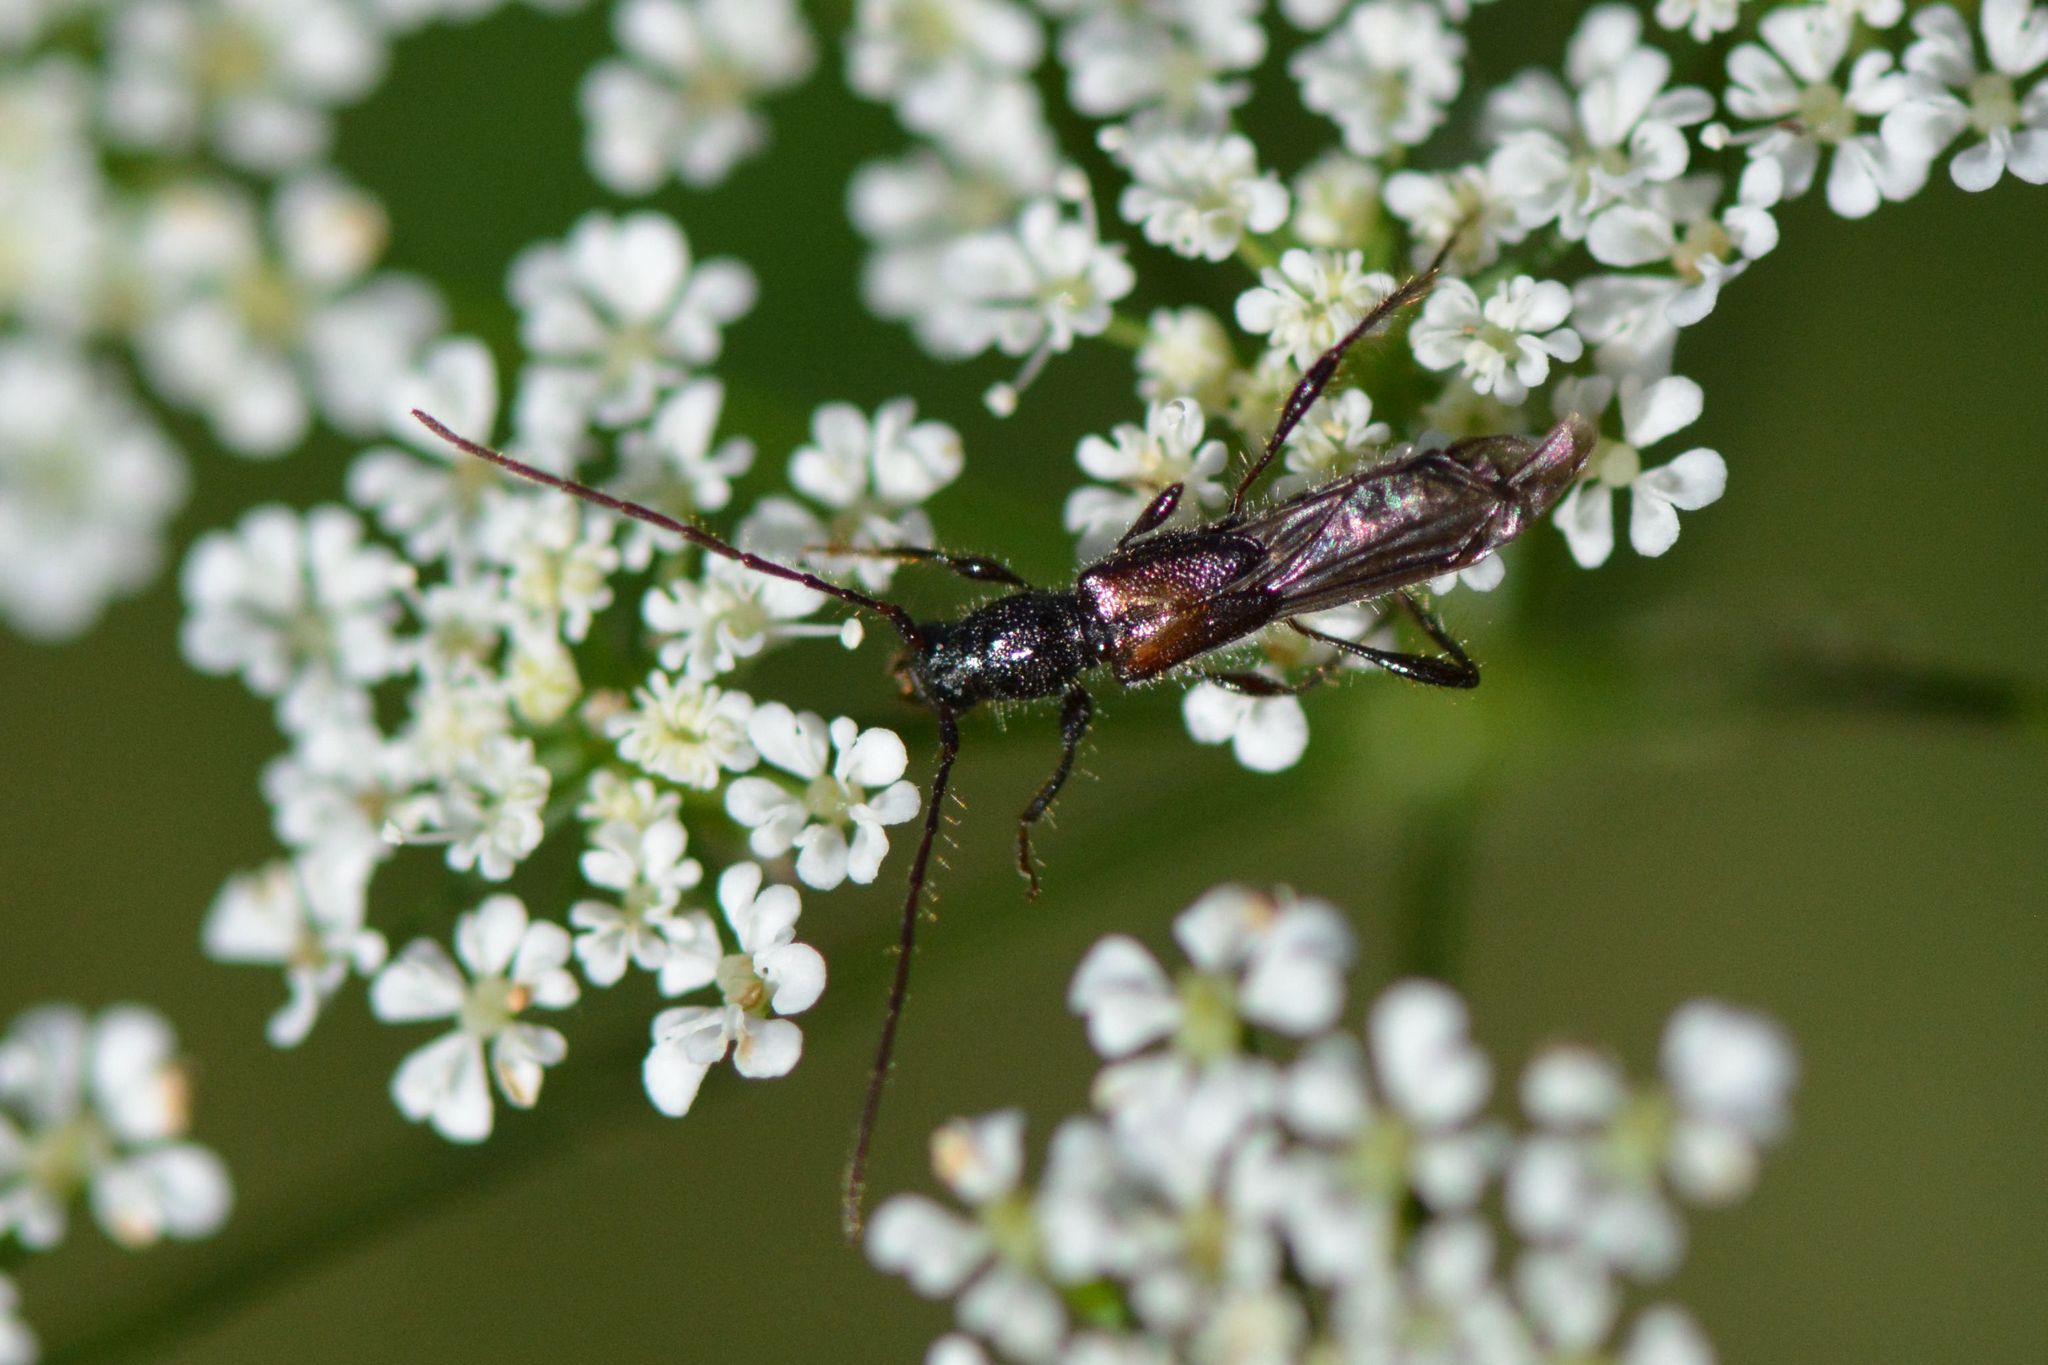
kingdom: Animalia
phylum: Arthropoda
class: Insecta
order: Coleoptera
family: Cerambycidae
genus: Molorchus
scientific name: Molorchus umbellatarum
